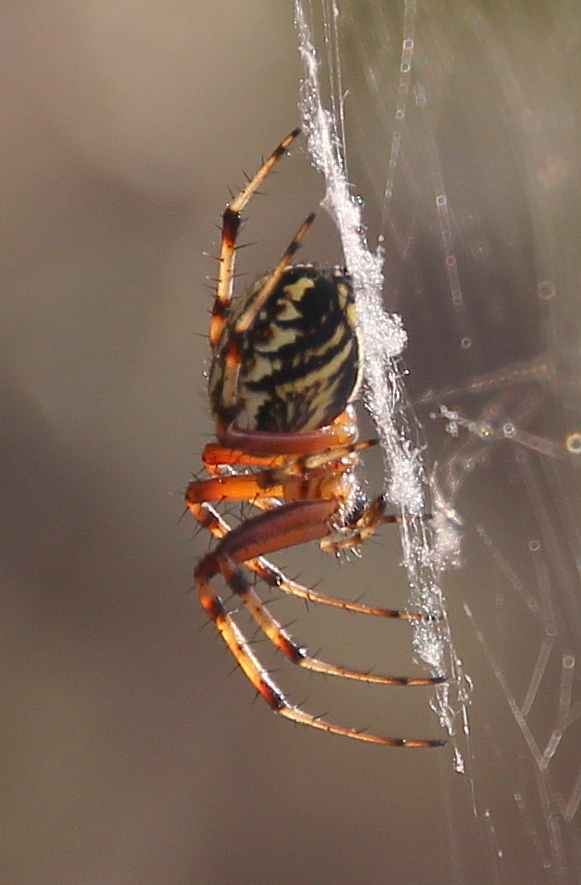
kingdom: Animalia
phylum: Arthropoda
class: Arachnida
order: Araneae
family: Araneidae
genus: Neoscona
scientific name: Neoscona adianta
